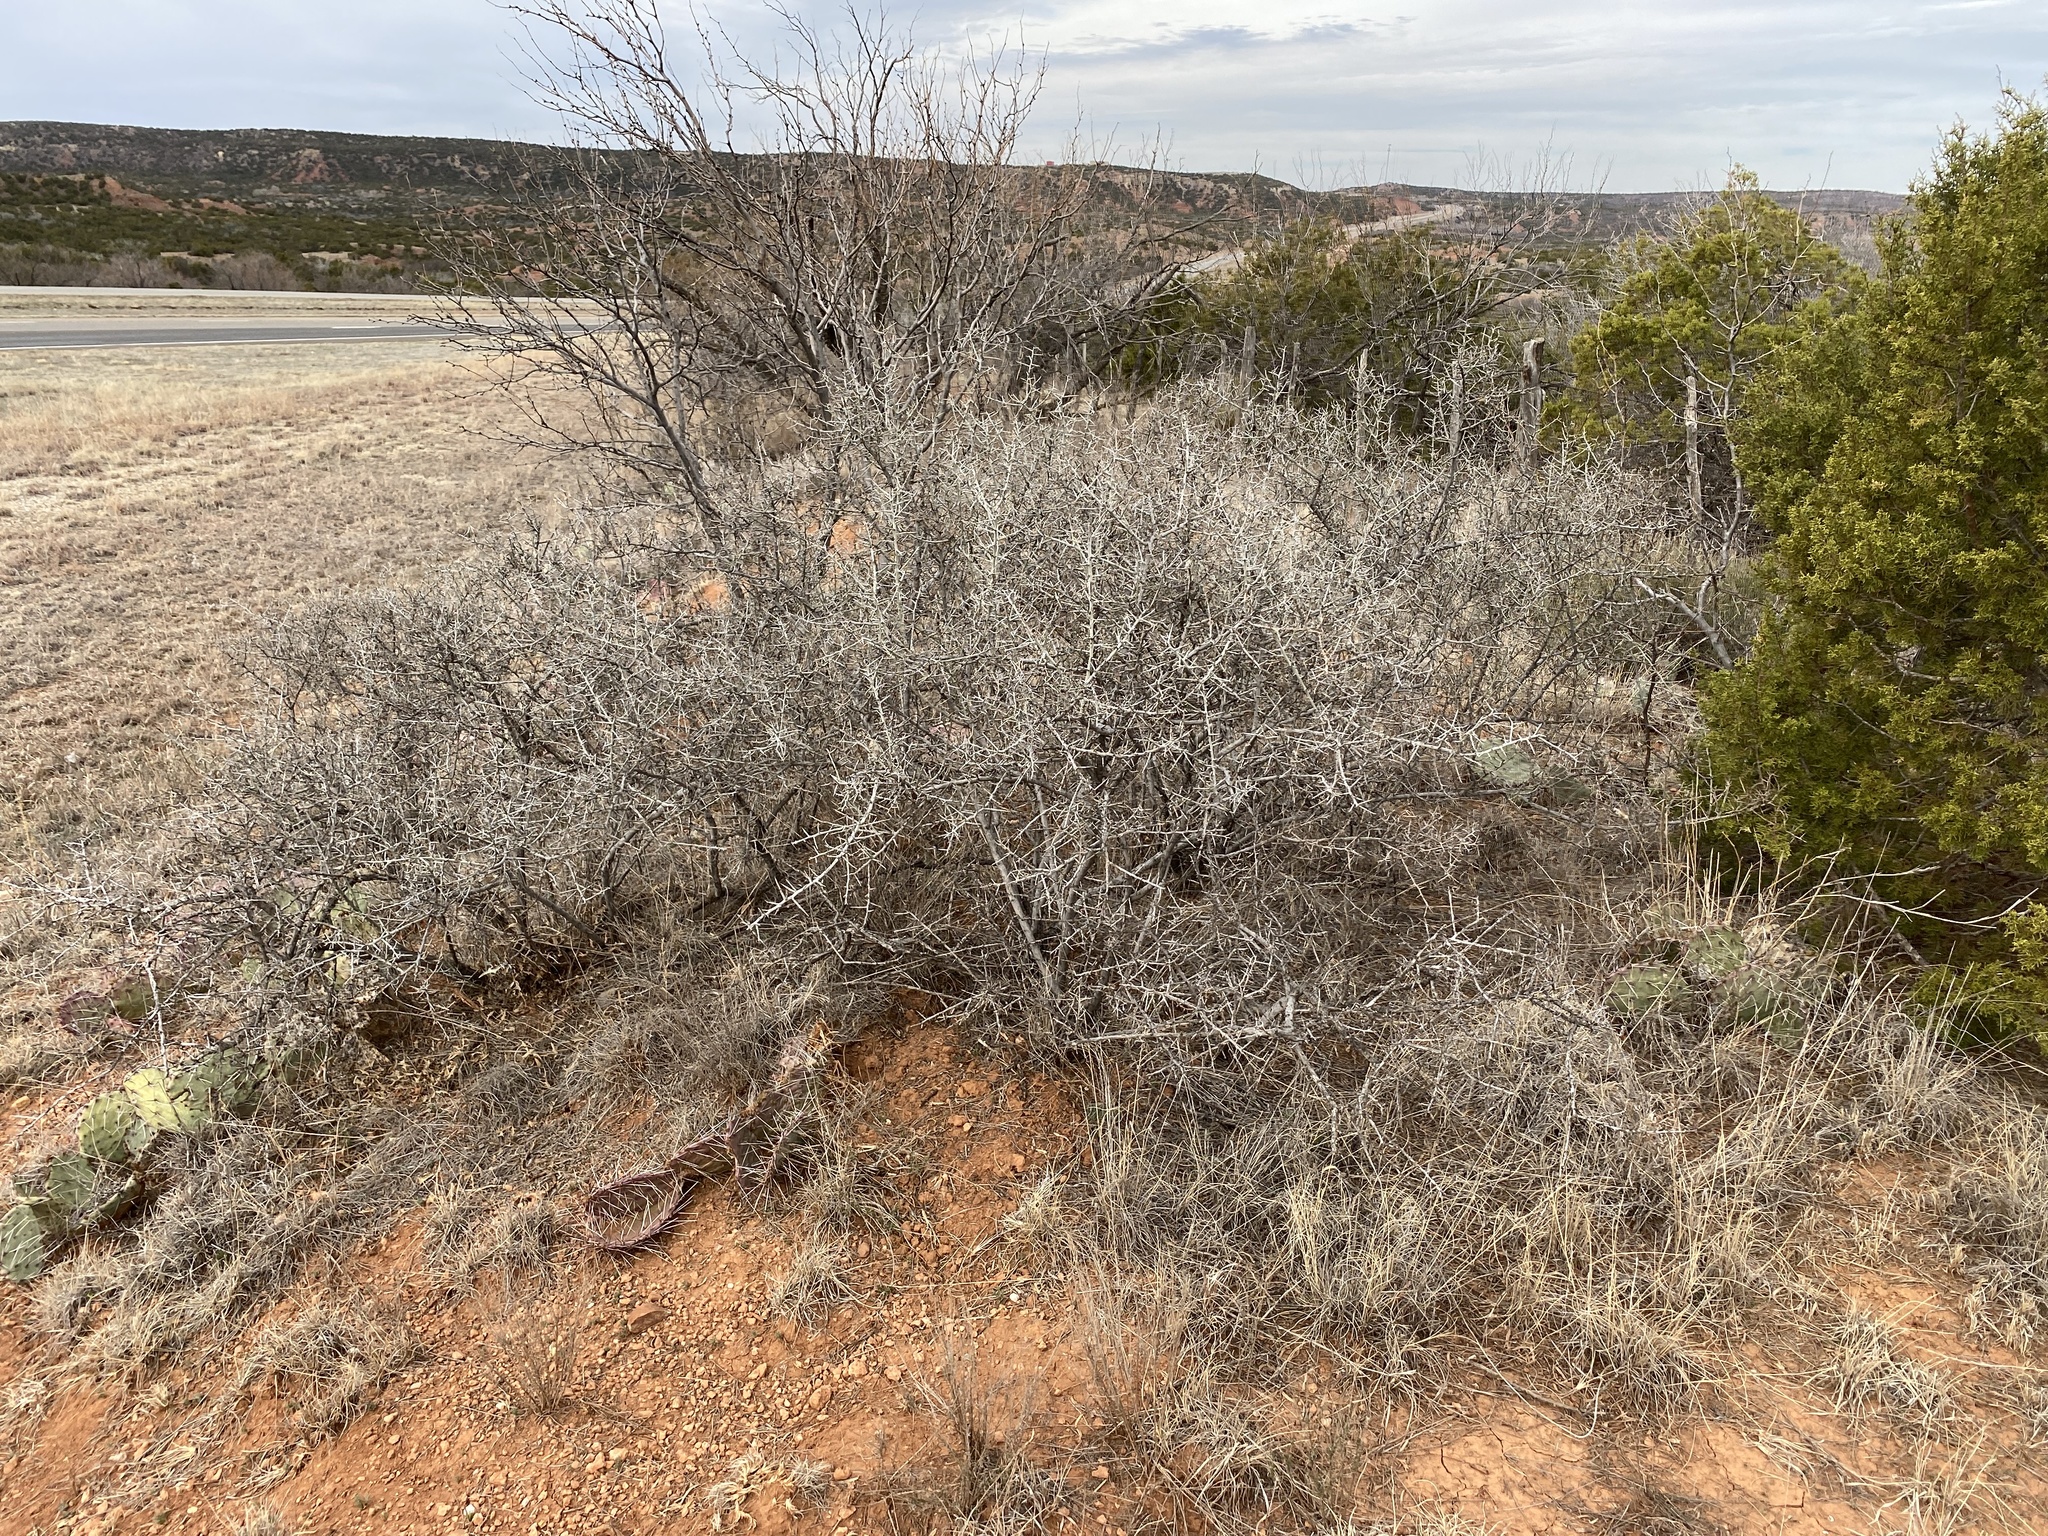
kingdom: Plantae
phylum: Tracheophyta
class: Magnoliopsida
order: Rosales
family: Rhamnaceae
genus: Sarcomphalus
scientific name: Sarcomphalus obtusifolius
